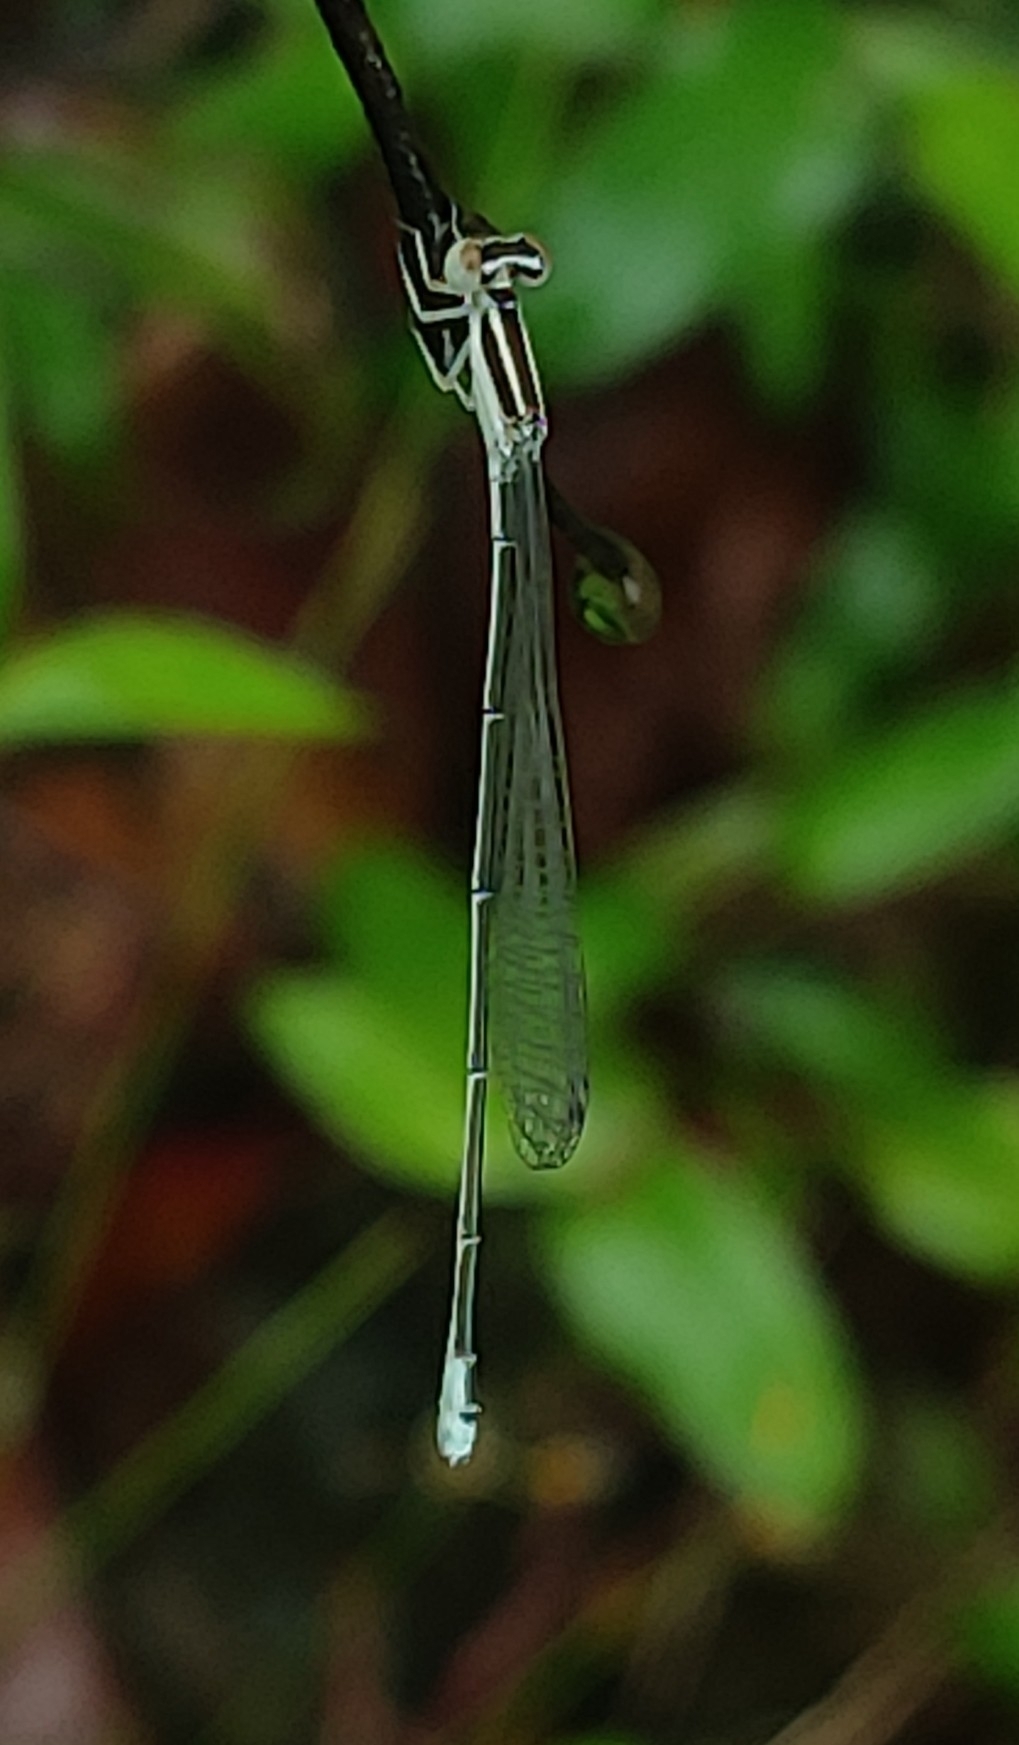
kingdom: Animalia
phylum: Arthropoda
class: Insecta
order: Odonata
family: Coenagrionidae
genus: Aciagrion
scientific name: Aciagrion occidentale
